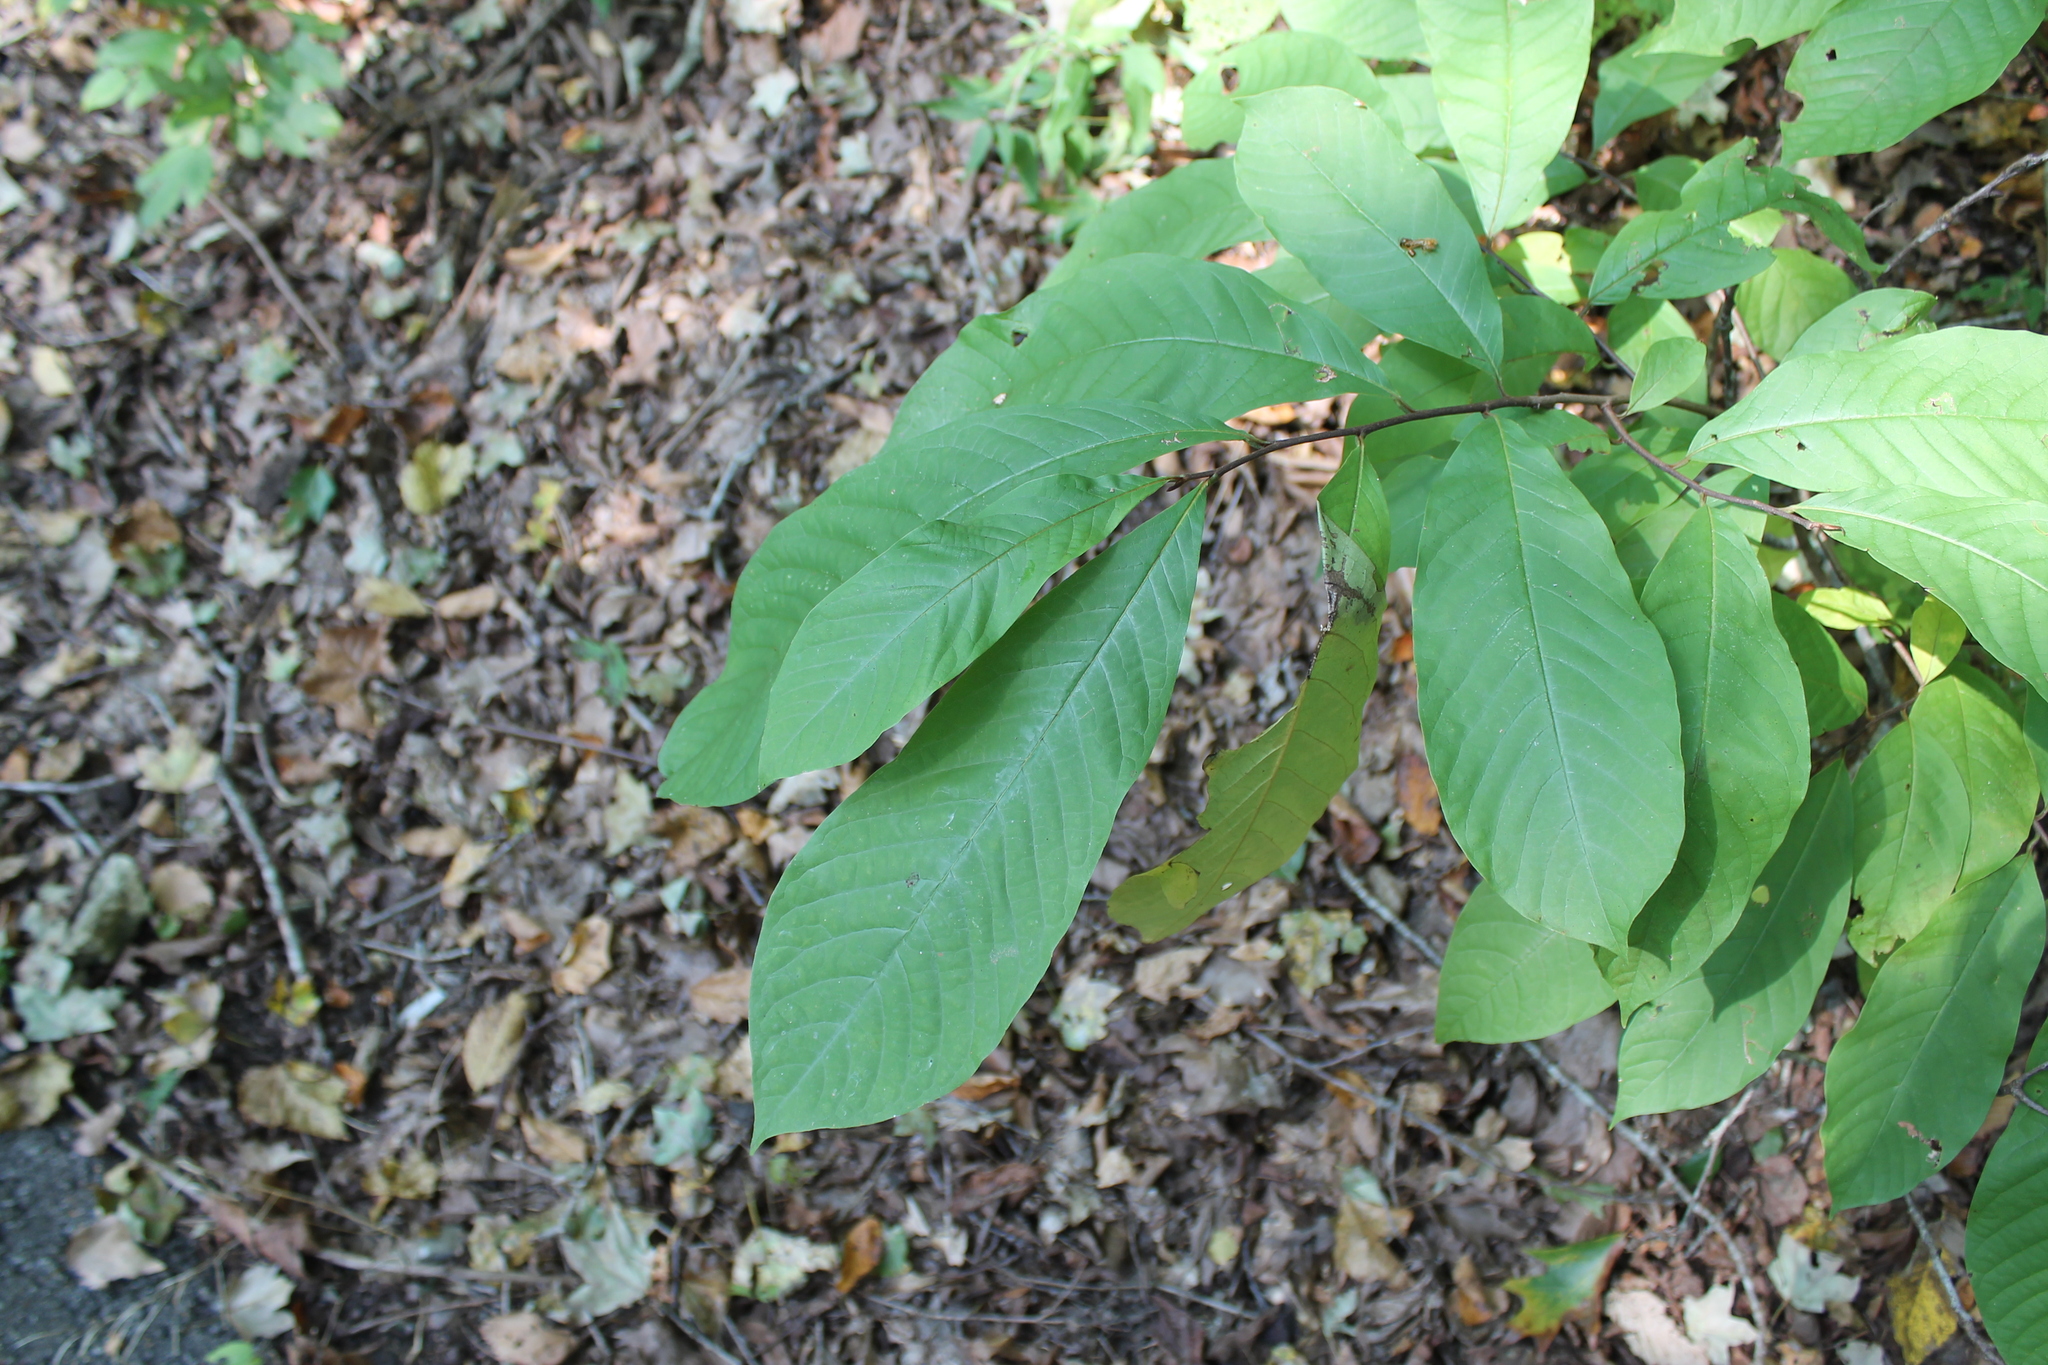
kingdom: Plantae
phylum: Tracheophyta
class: Magnoliopsida
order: Magnoliales
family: Annonaceae
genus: Asimina
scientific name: Asimina triloba
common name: Dog-banana
